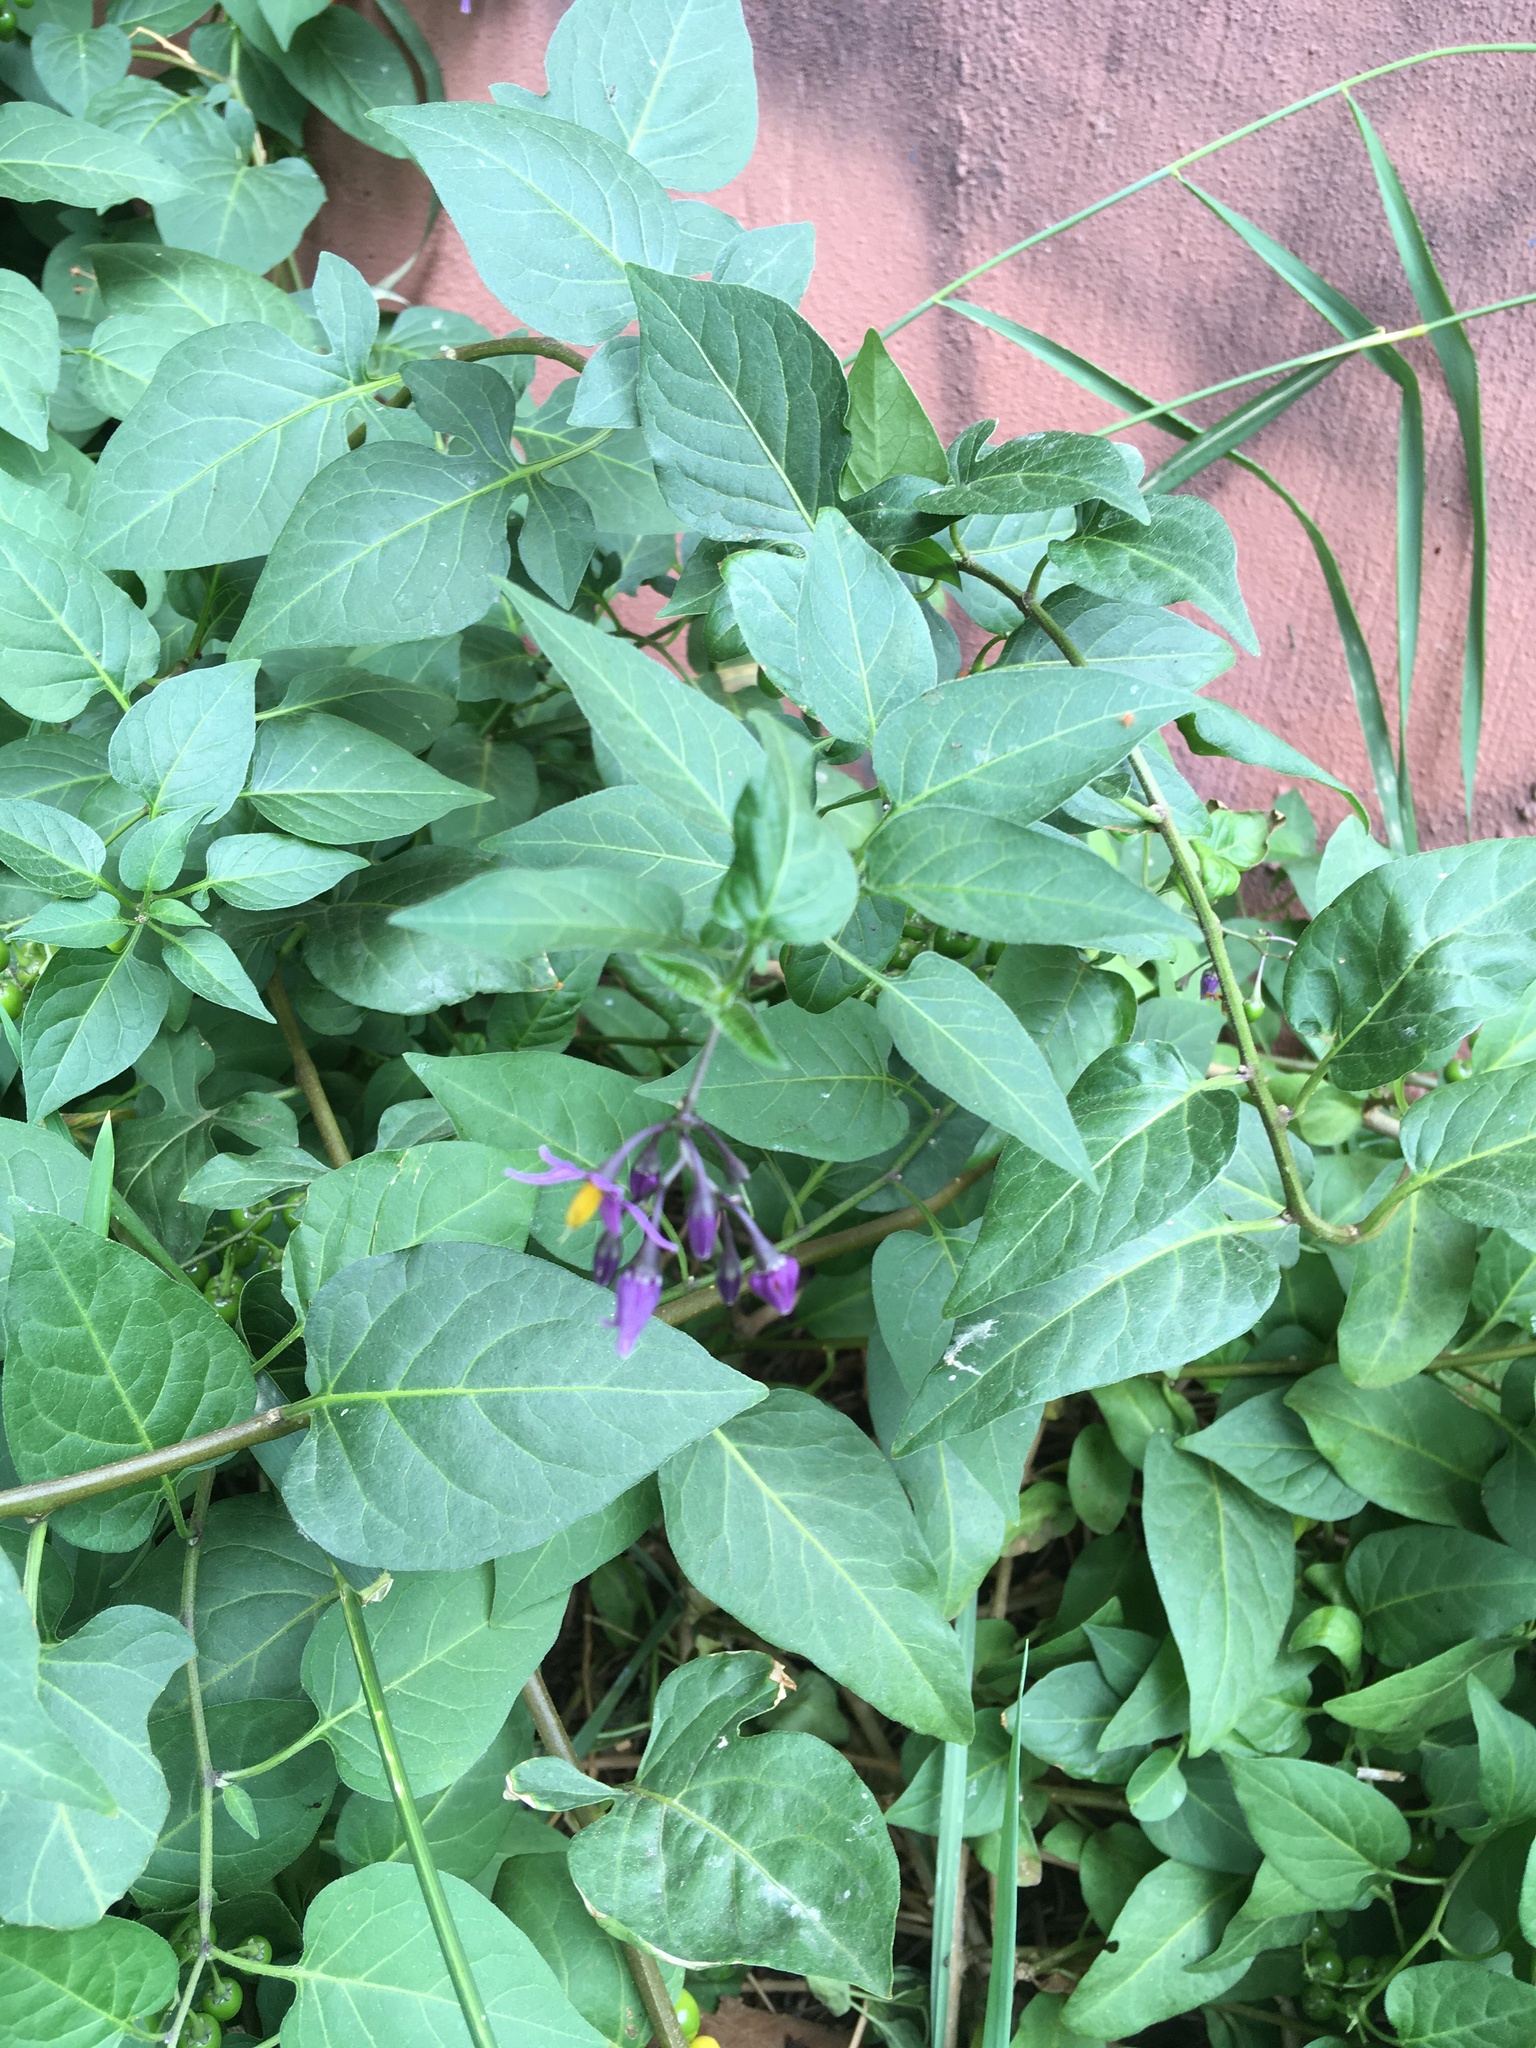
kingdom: Plantae
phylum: Tracheophyta
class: Magnoliopsida
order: Solanales
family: Solanaceae
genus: Solanum
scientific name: Solanum dulcamara
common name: Climbing nightshade
